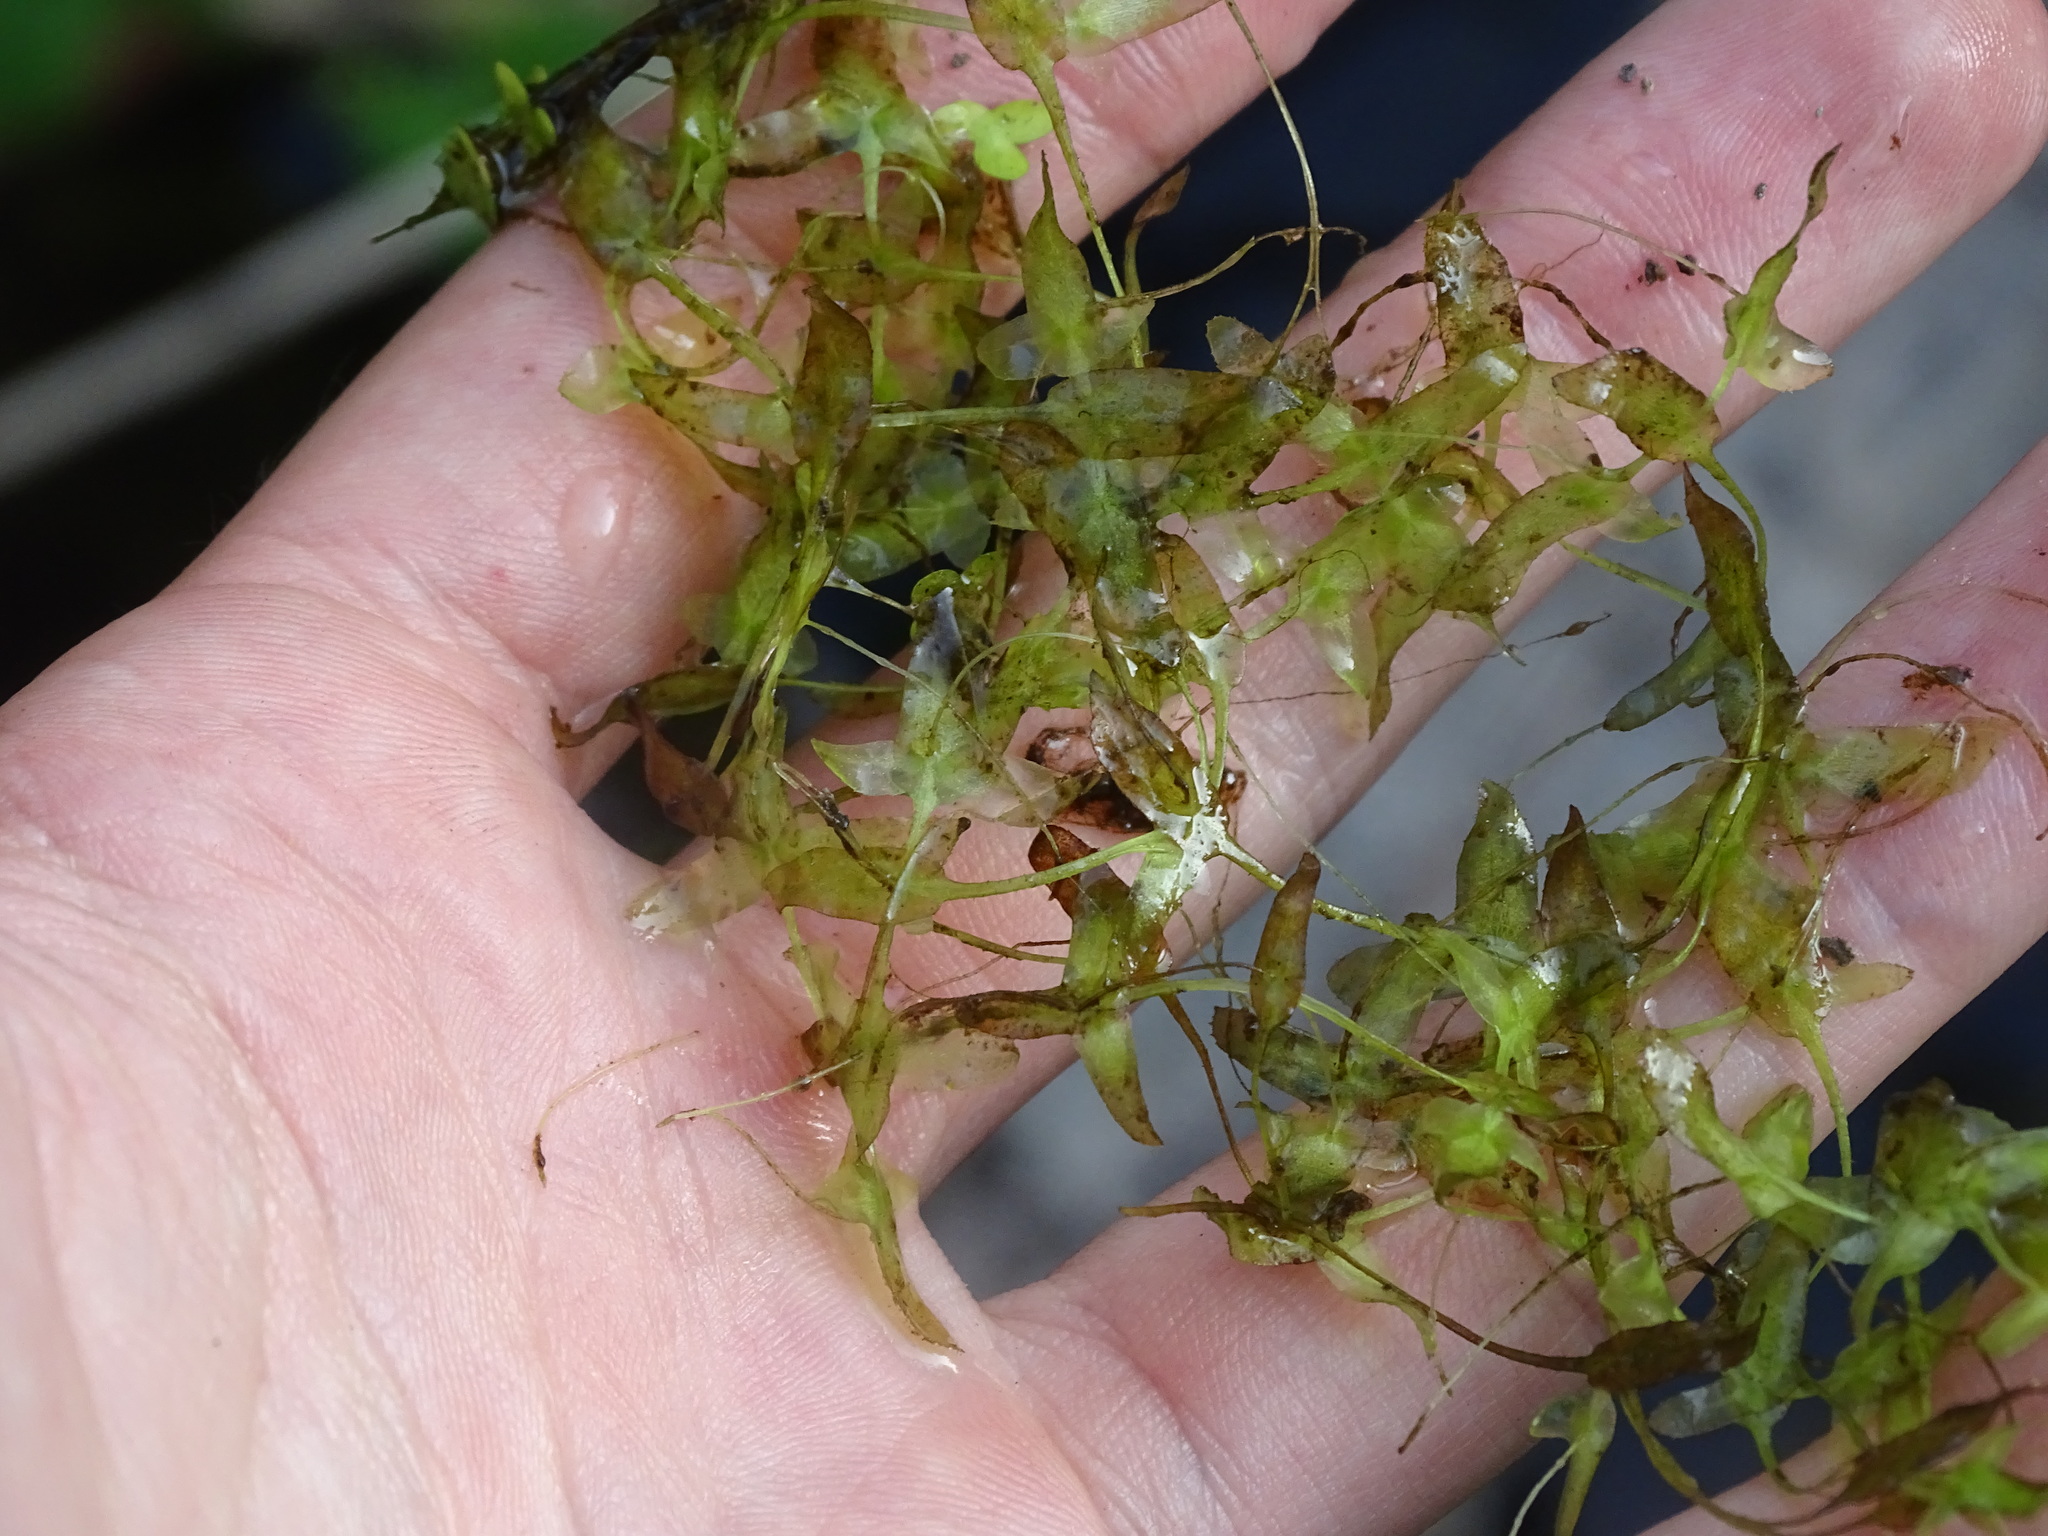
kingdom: Plantae
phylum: Tracheophyta
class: Liliopsida
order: Alismatales
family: Araceae
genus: Lemna
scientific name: Lemna trisulca
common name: Ivy-leaved duckweed
